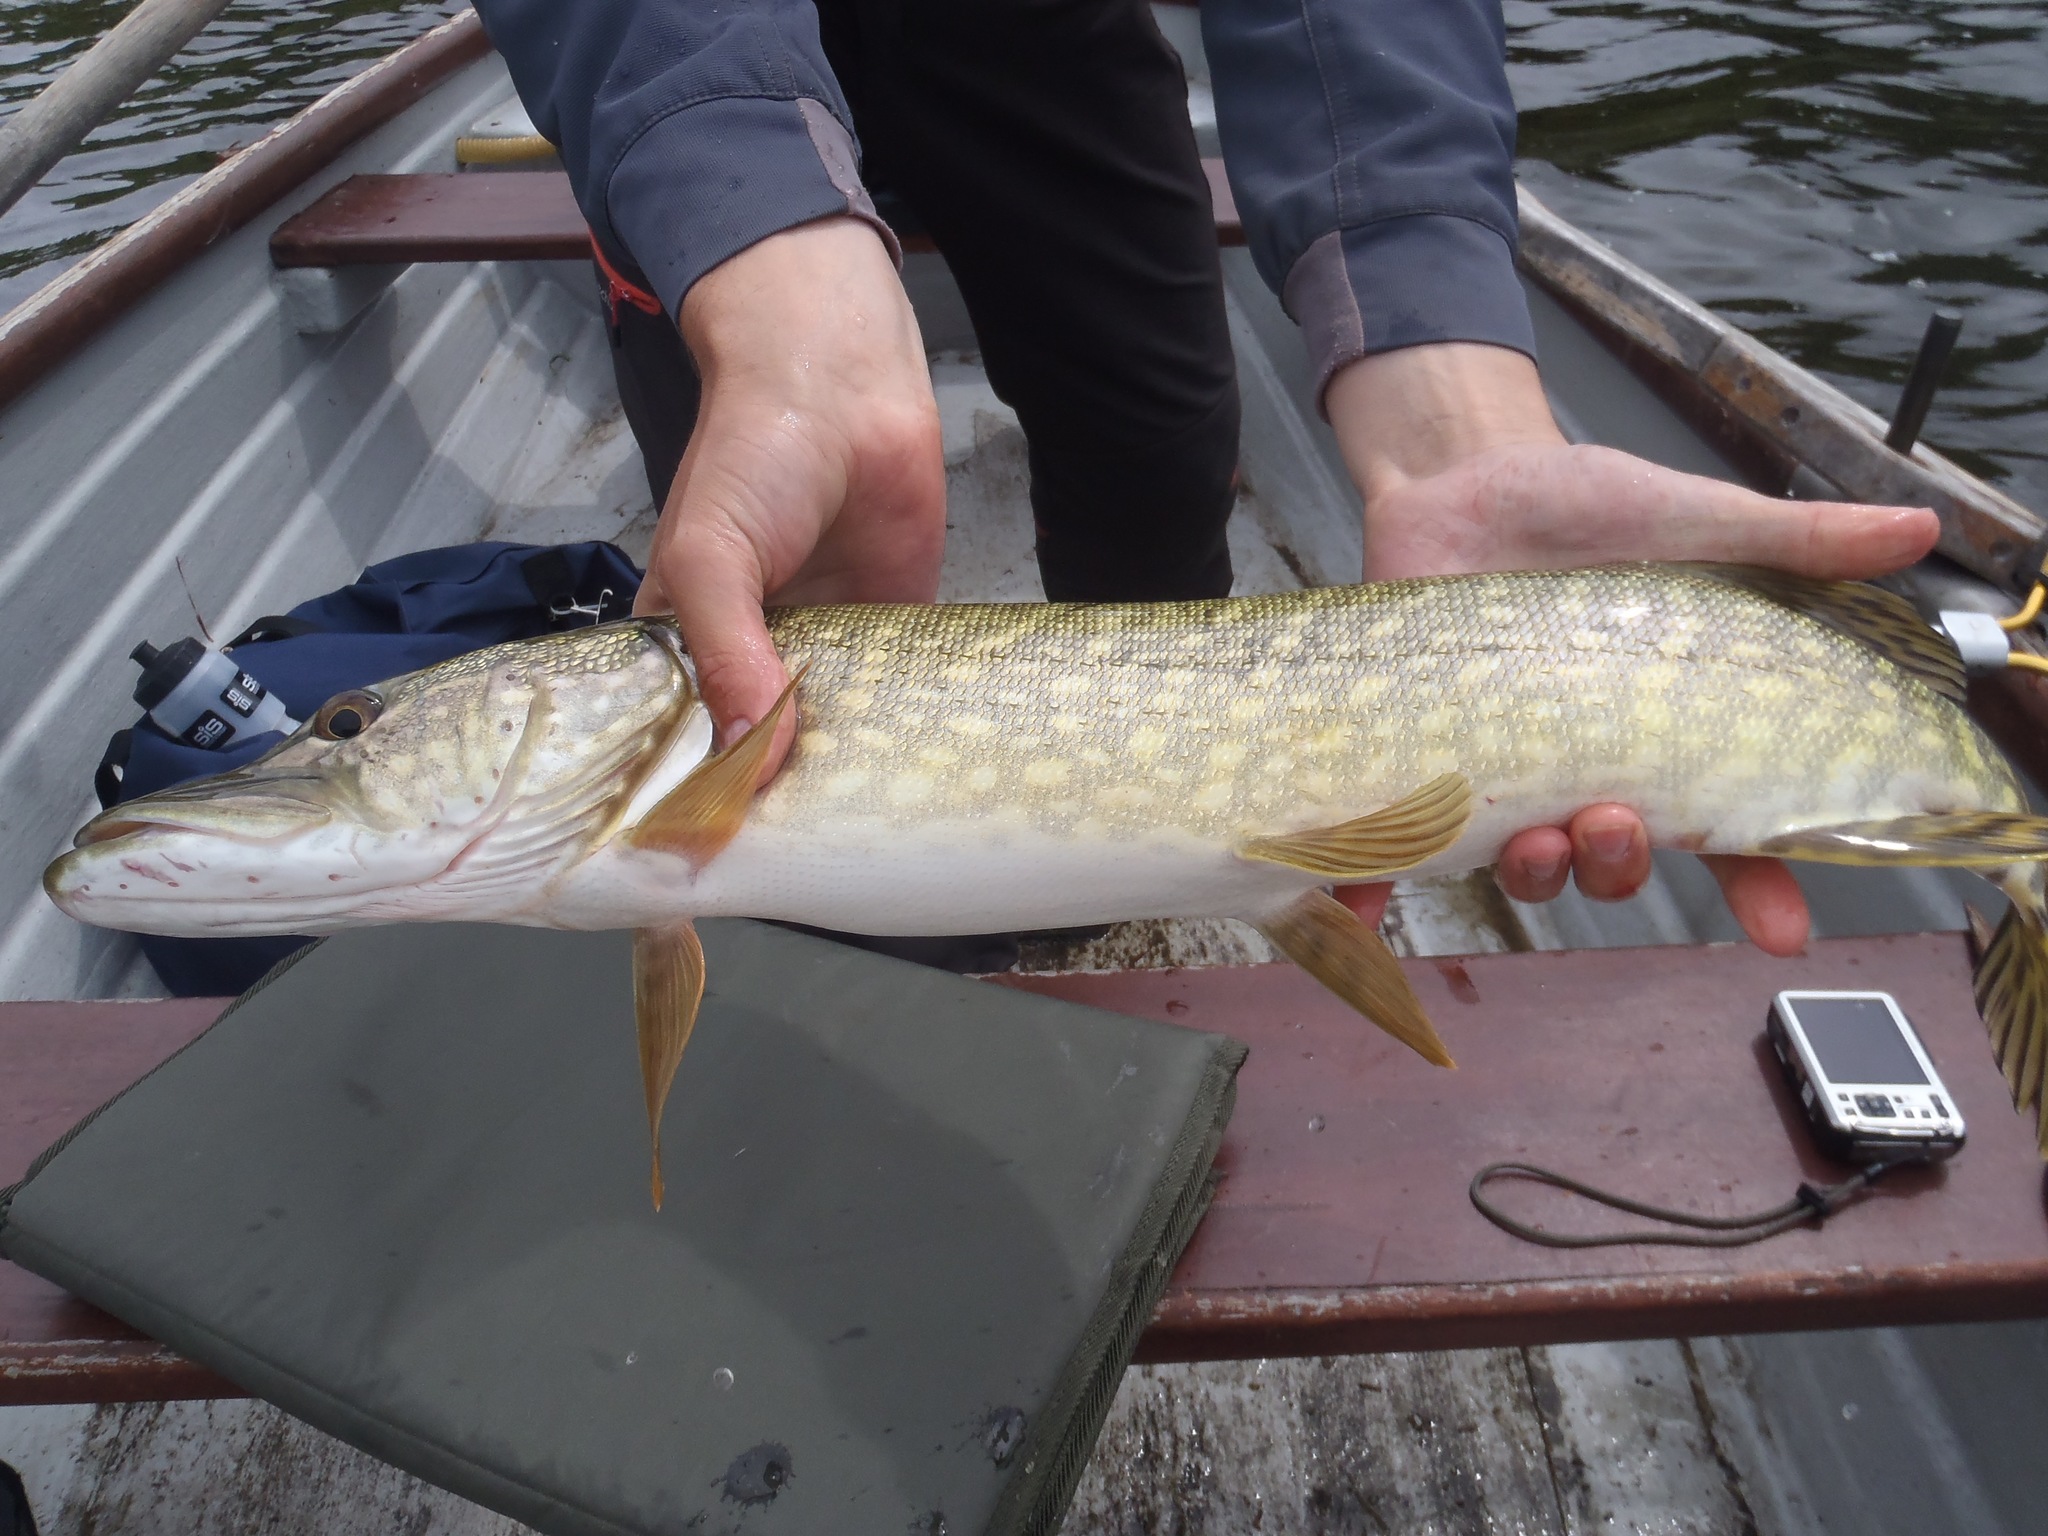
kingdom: Animalia
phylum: Chordata
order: Esociformes
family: Esocidae
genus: Esox
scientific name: Esox lucius
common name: Northern pike
